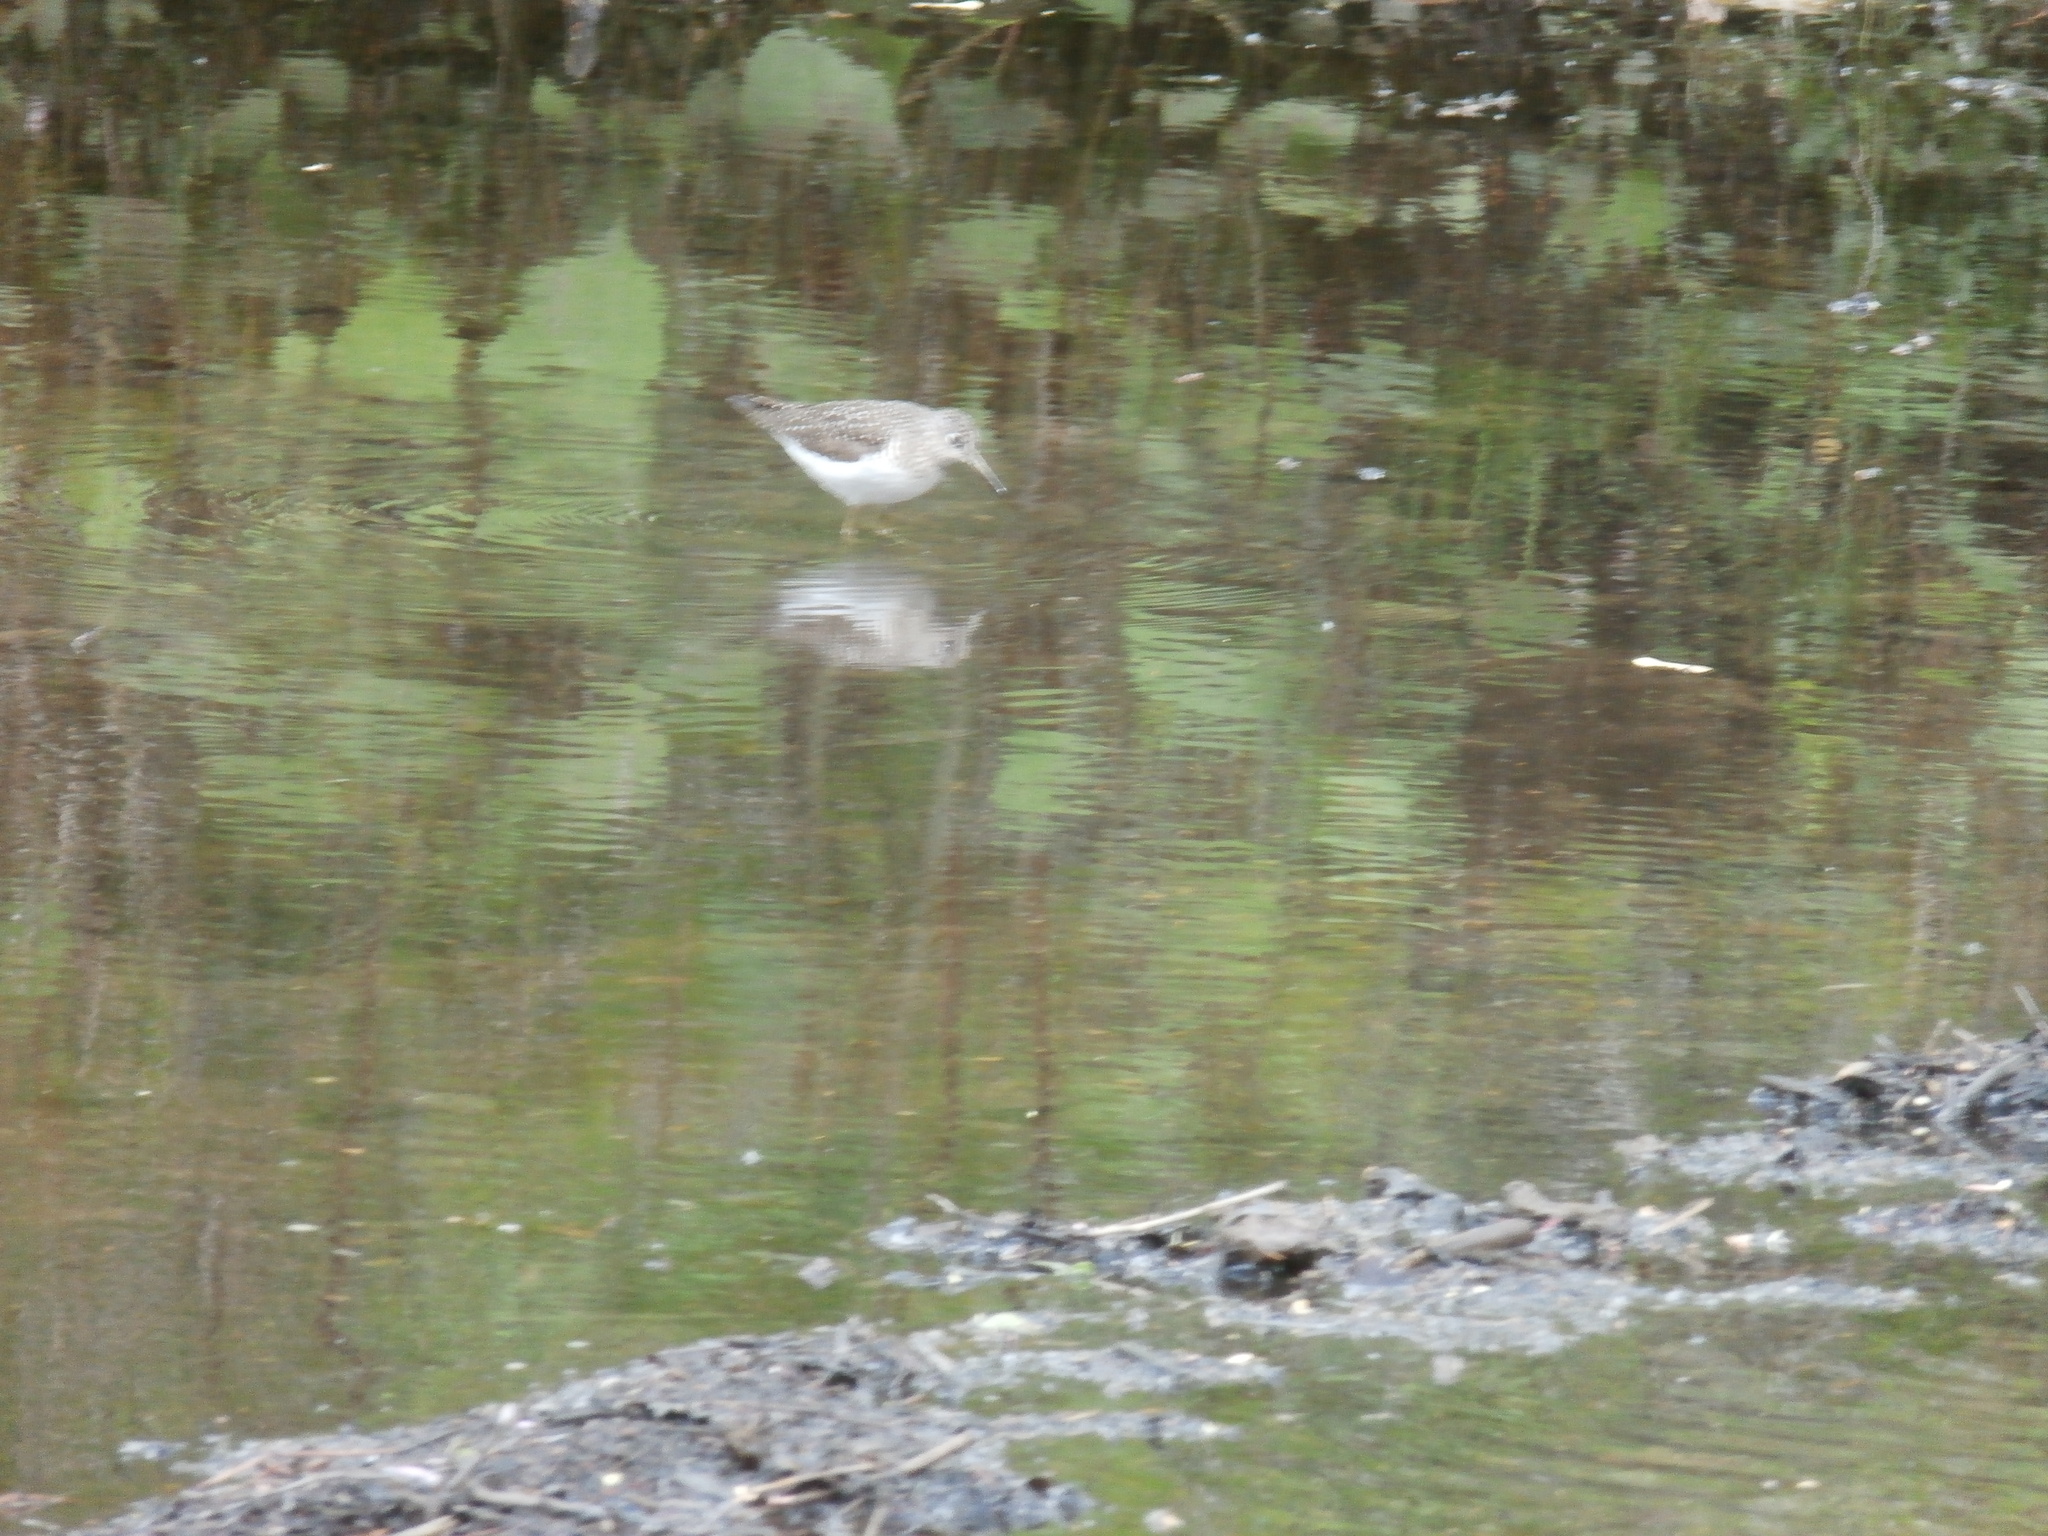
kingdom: Animalia
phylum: Chordata
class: Aves
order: Charadriiformes
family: Scolopacidae
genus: Tringa
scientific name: Tringa solitaria
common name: Solitary sandpiper
